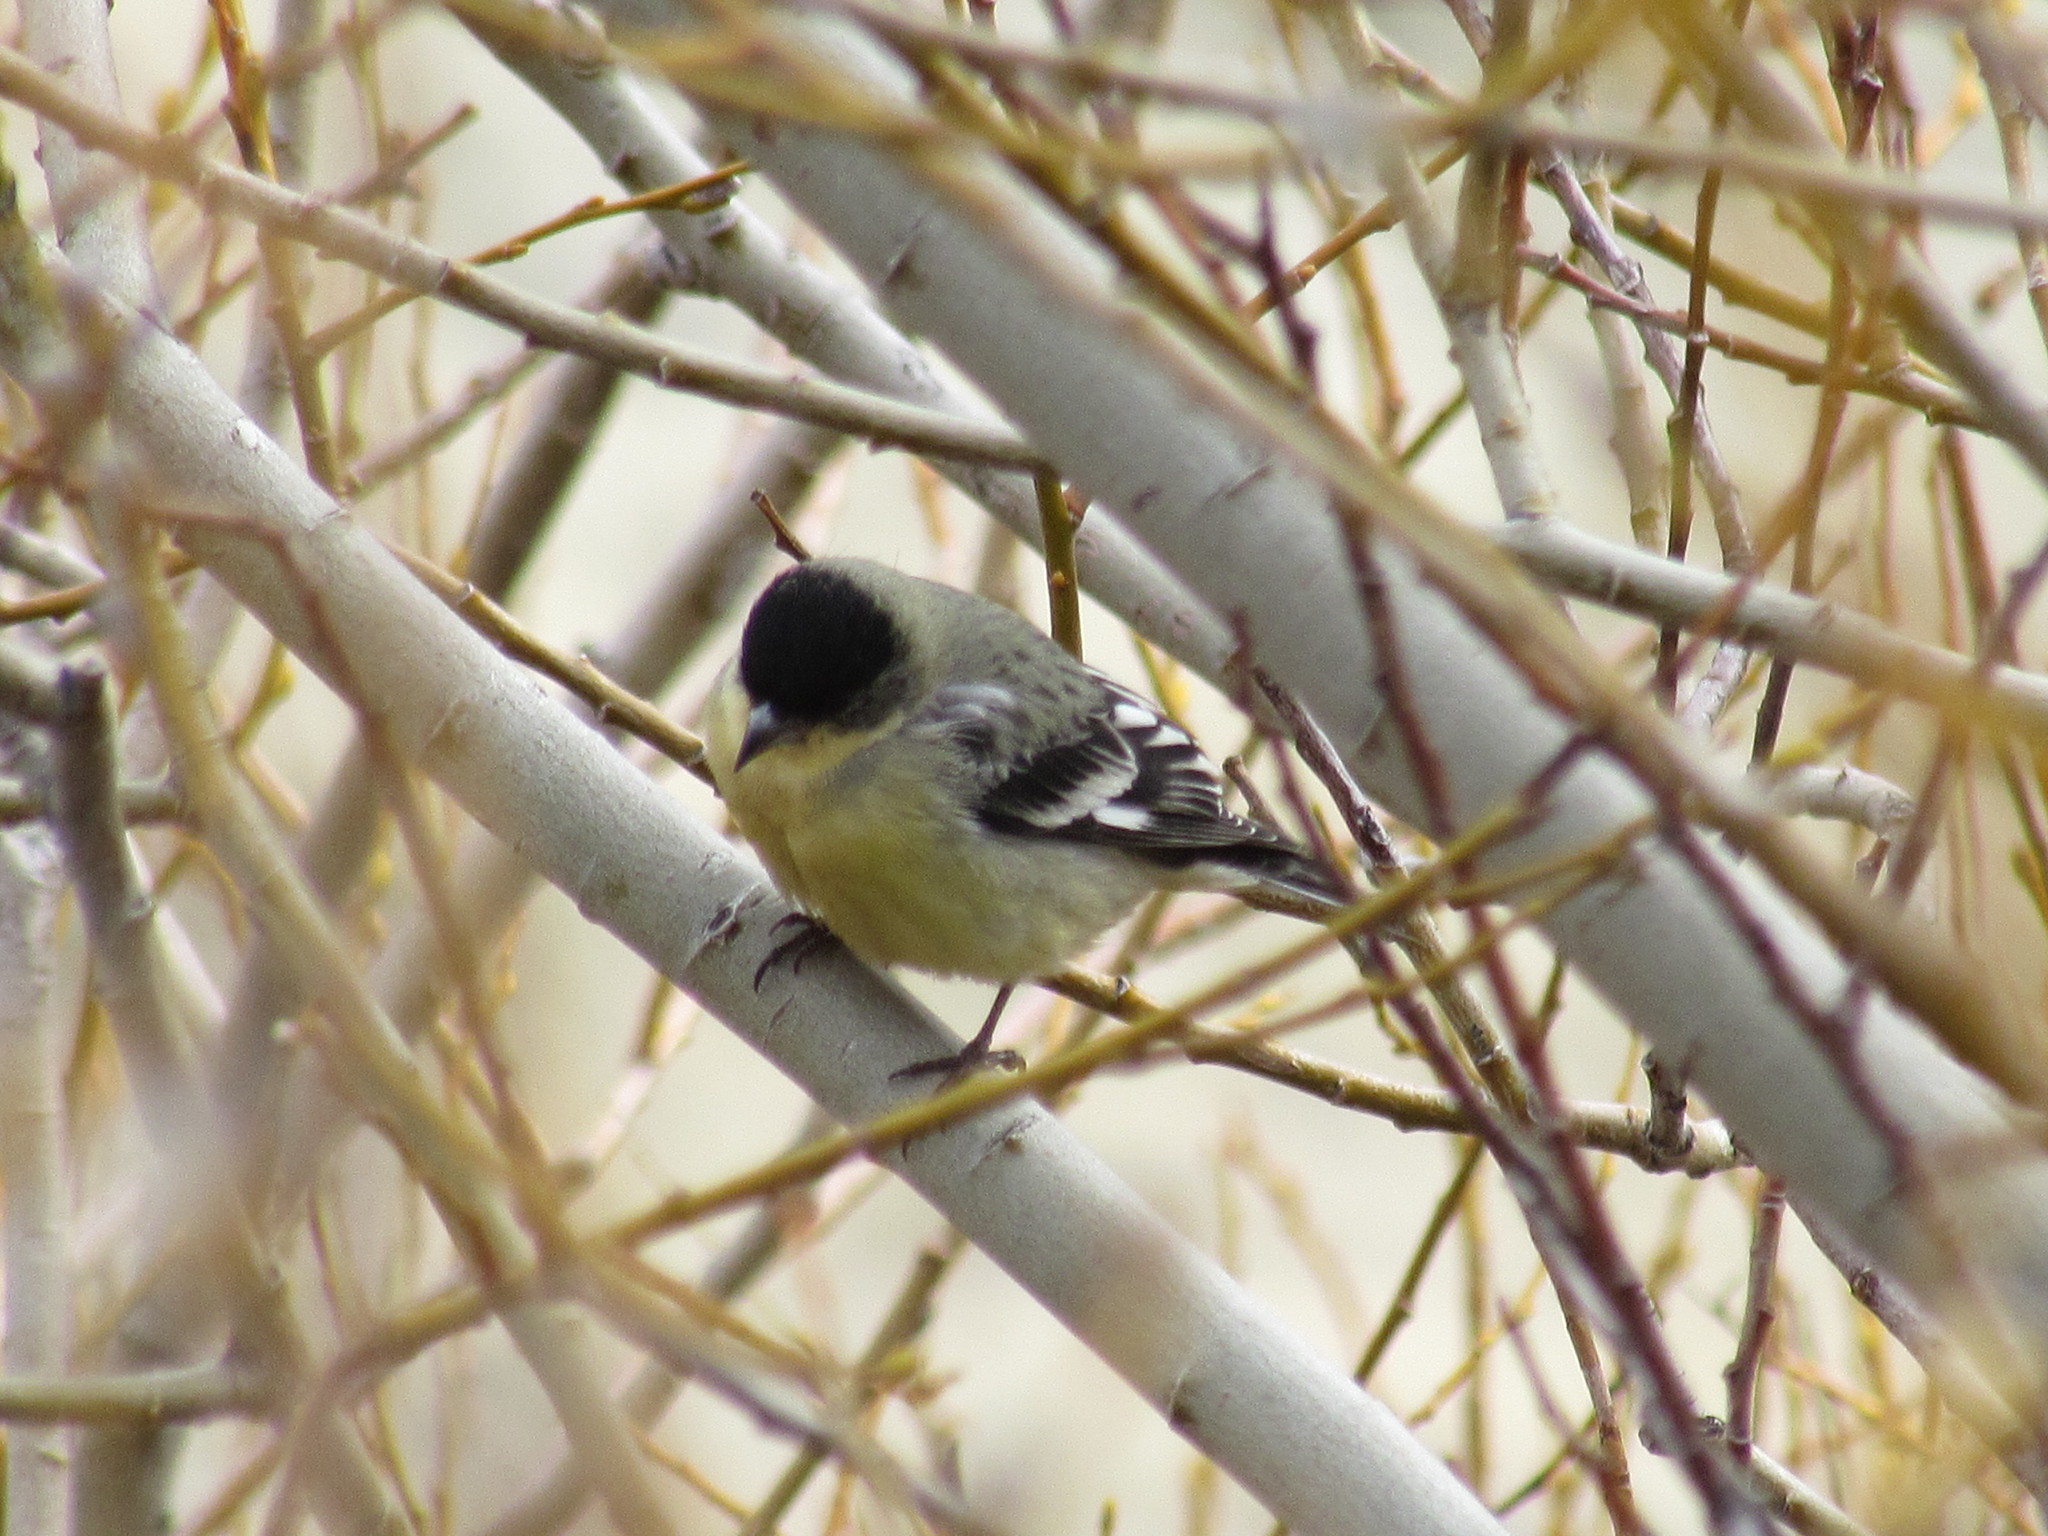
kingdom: Animalia
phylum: Chordata
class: Aves
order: Passeriformes
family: Fringillidae
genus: Spinus
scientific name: Spinus psaltria
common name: Lesser goldfinch
